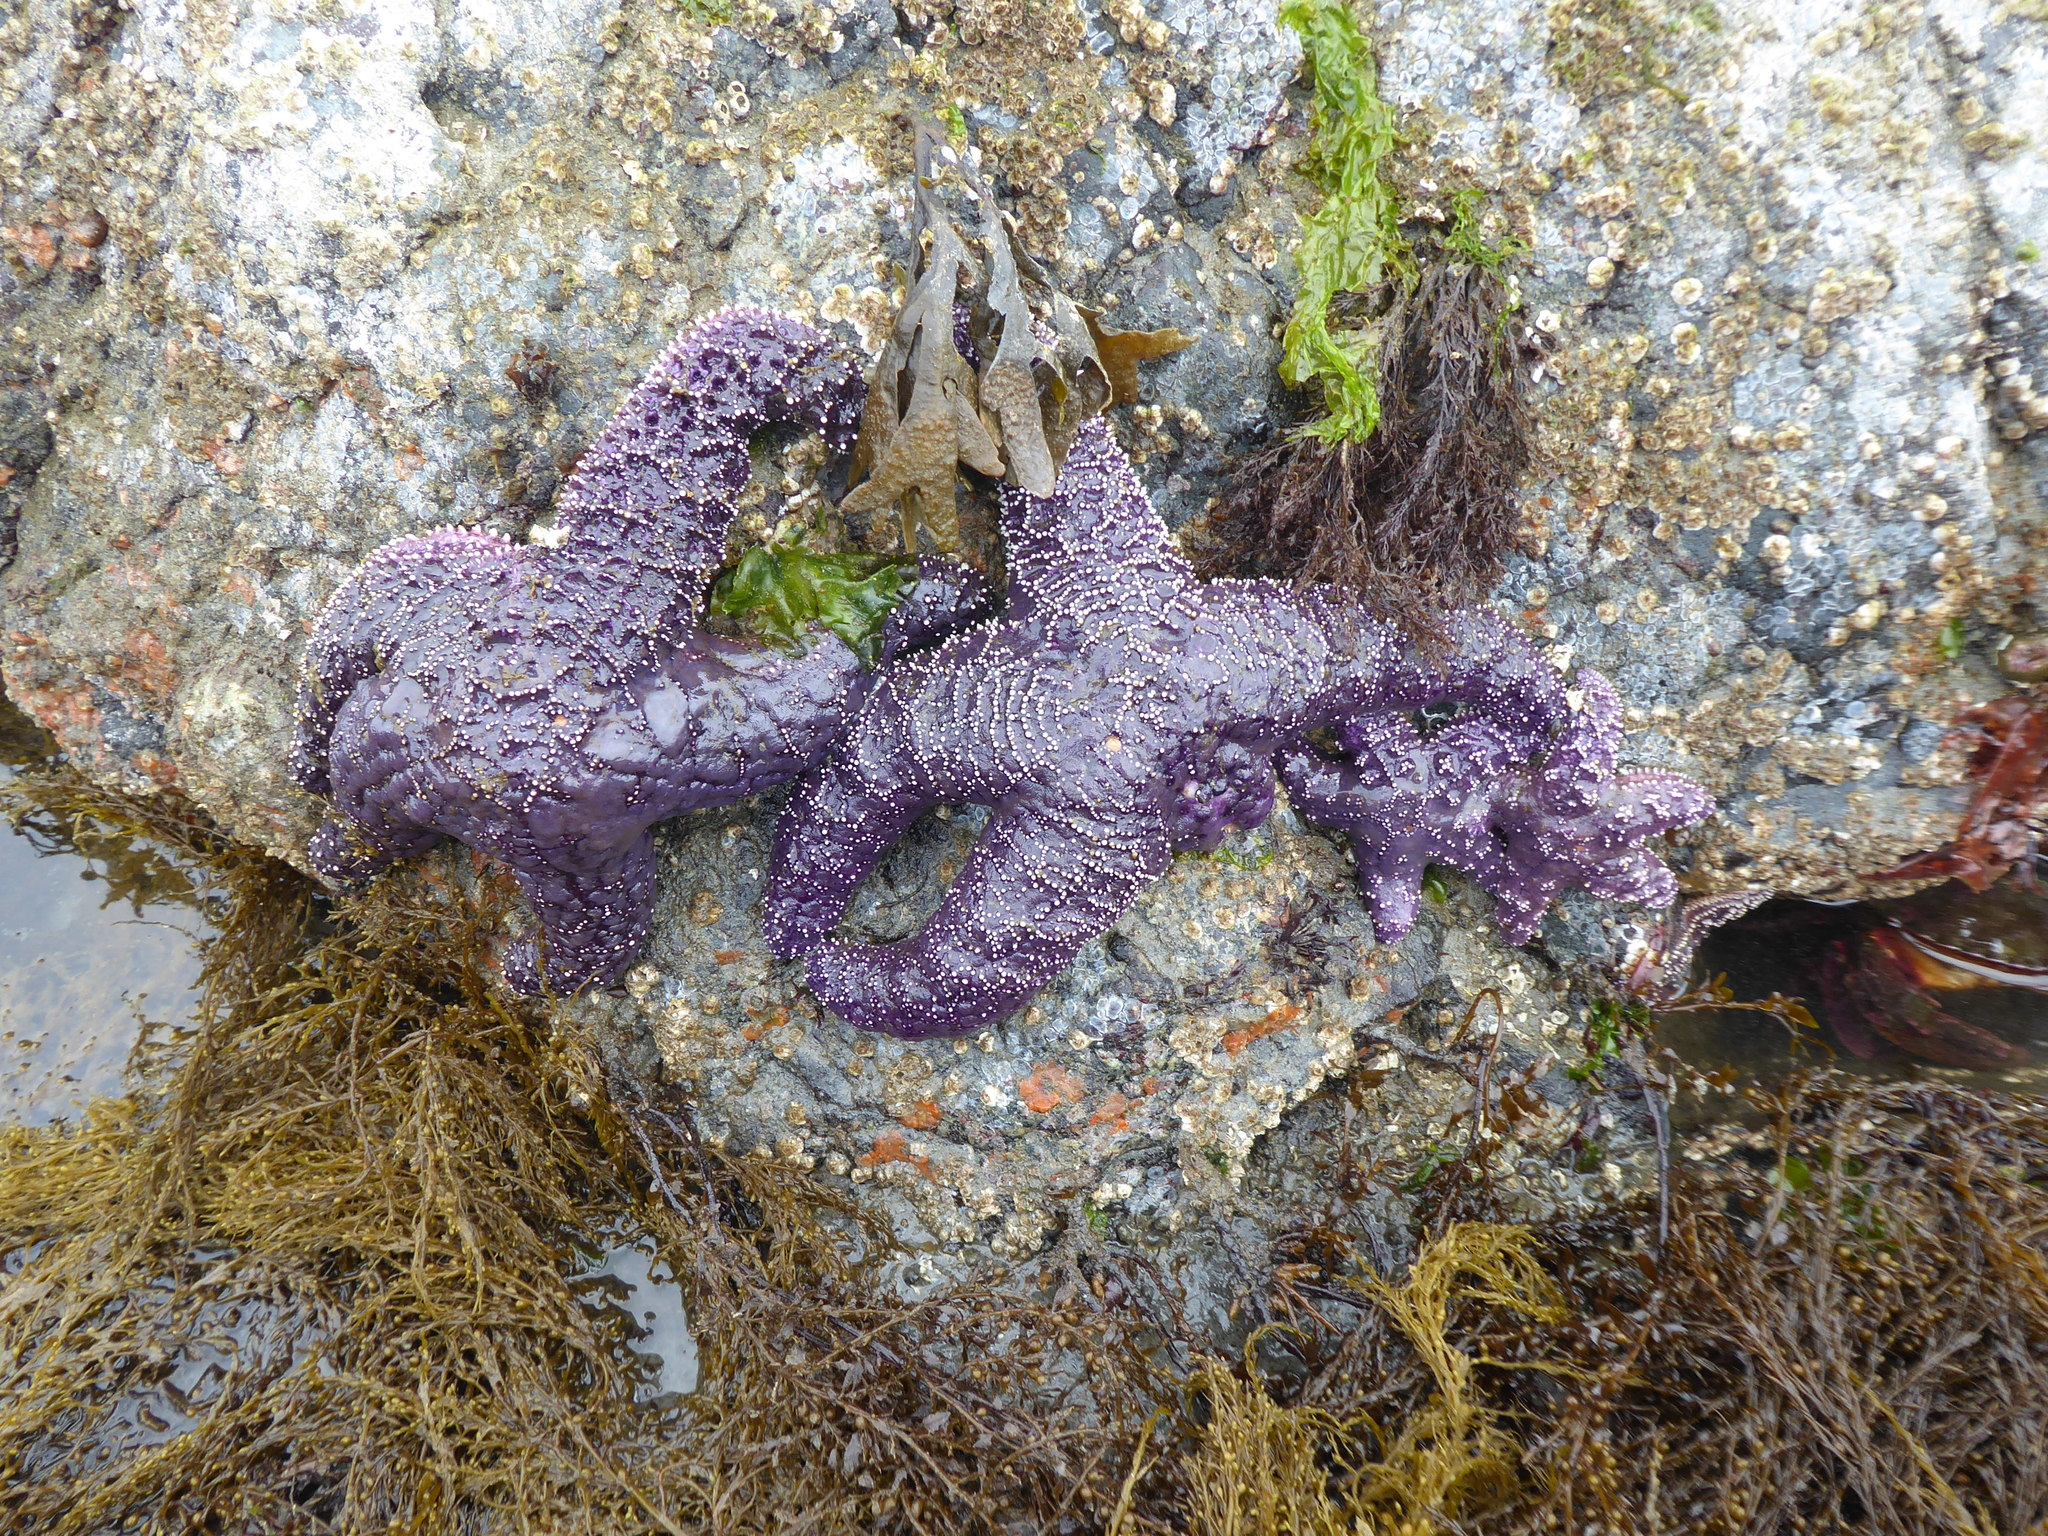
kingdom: Animalia
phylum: Echinodermata
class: Asteroidea
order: Forcipulatida
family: Asteriidae
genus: Pisaster
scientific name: Pisaster ochraceus
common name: Ochre stars
